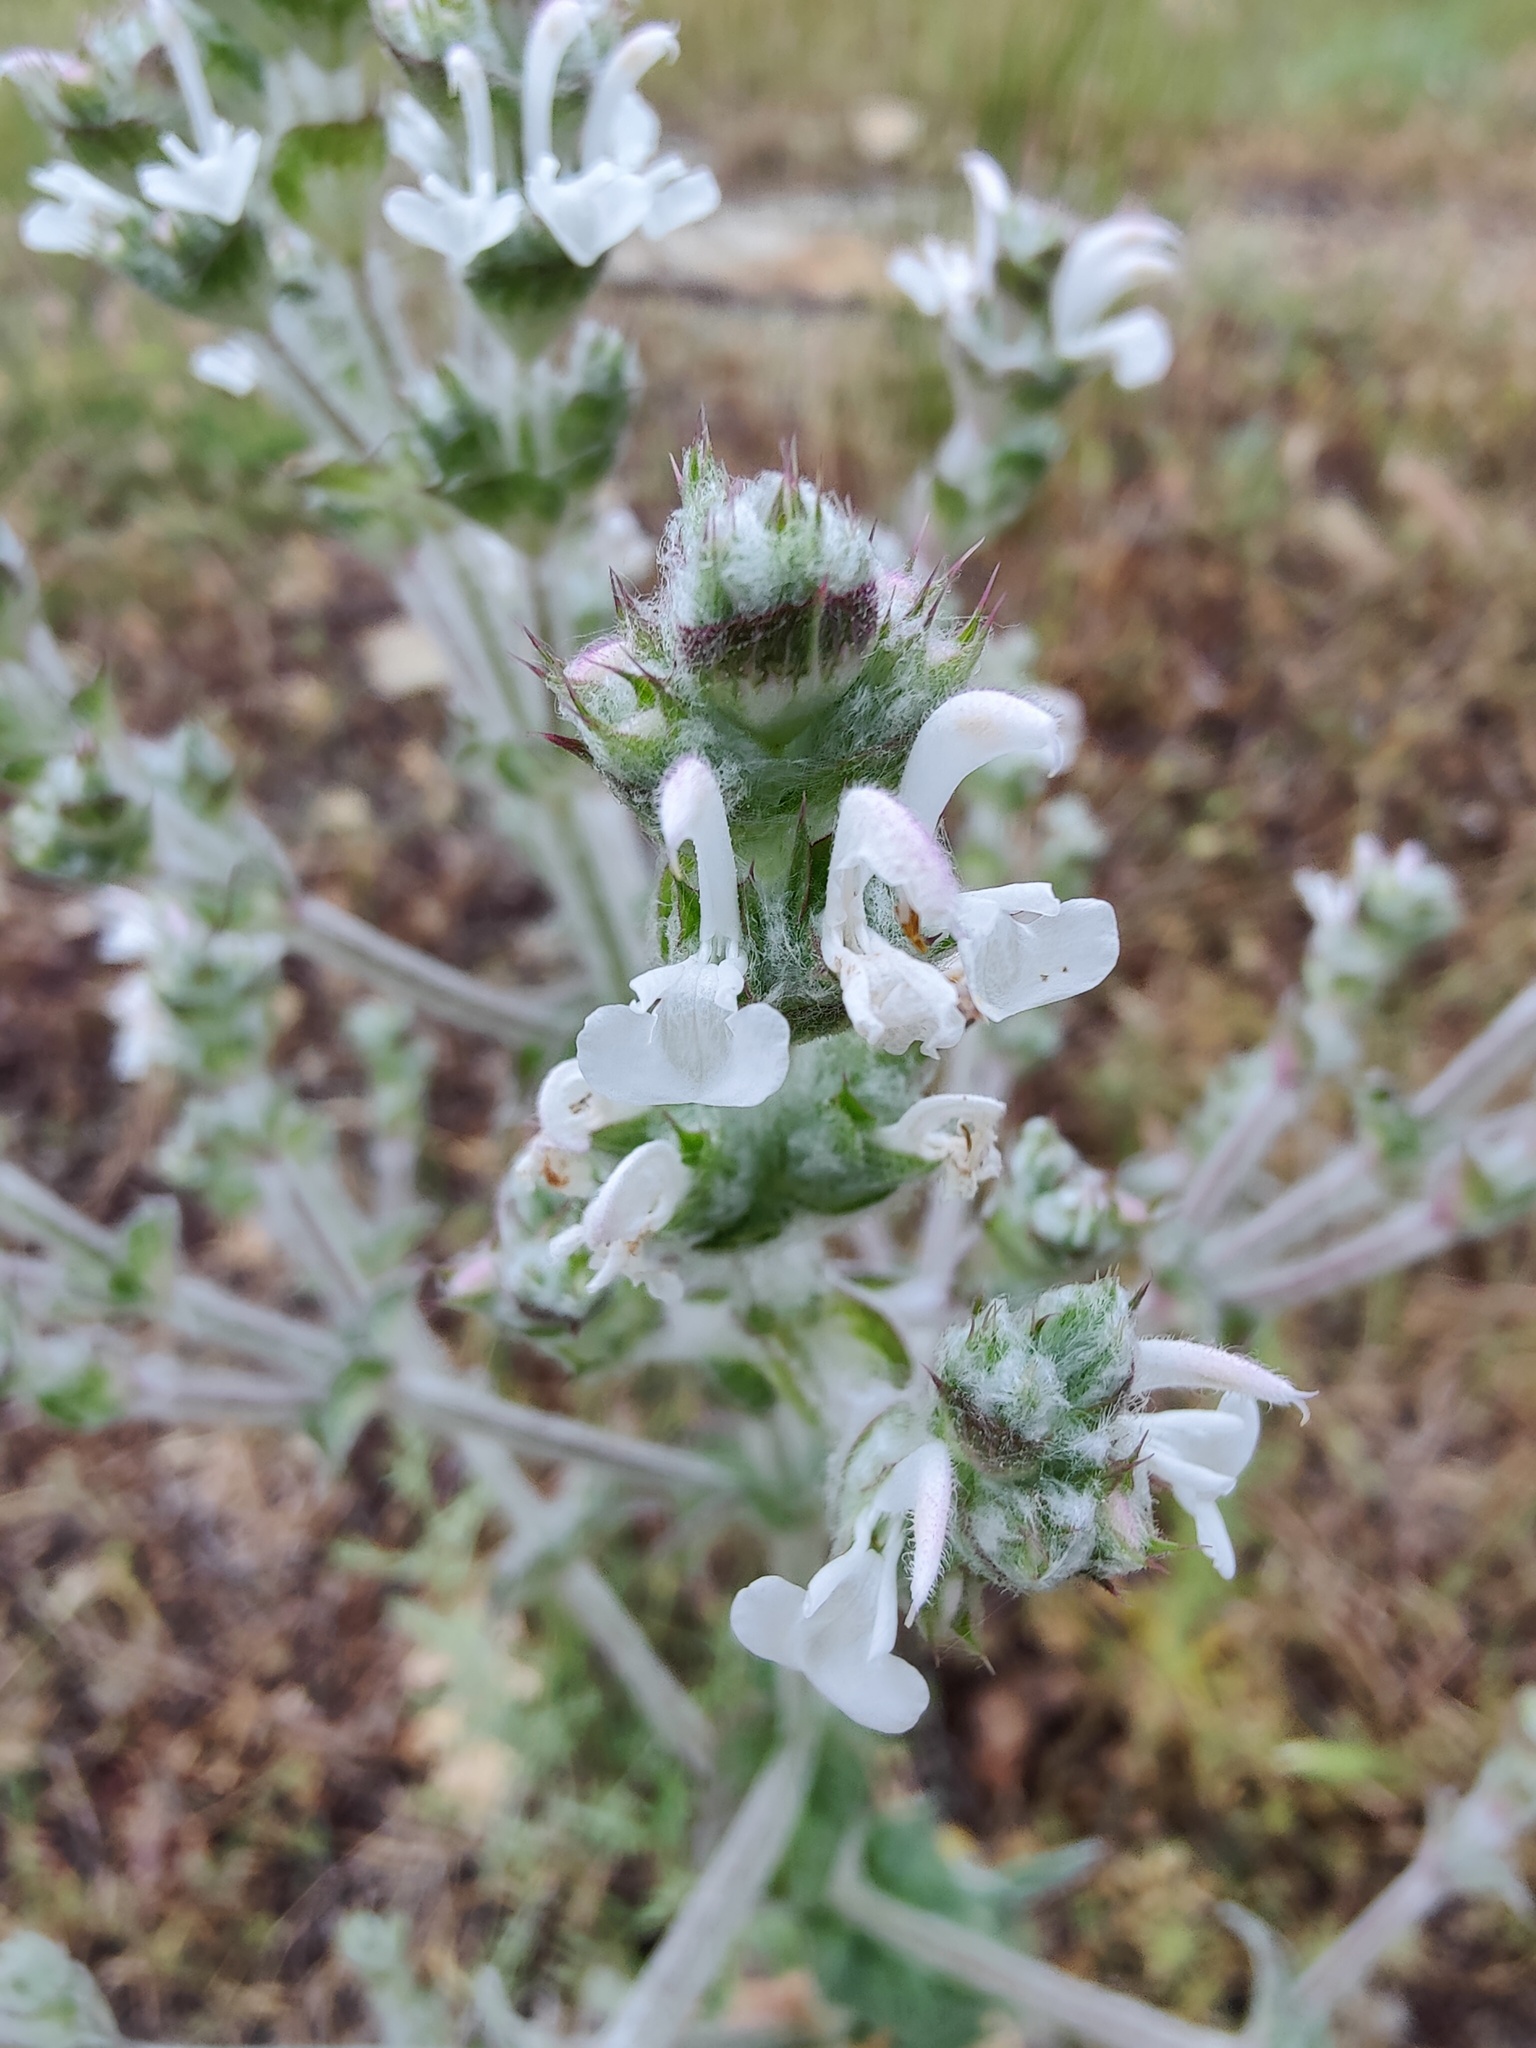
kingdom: Plantae
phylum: Tracheophyta
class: Magnoliopsida
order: Lamiales
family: Lamiaceae
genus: Salvia
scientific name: Salvia aethiopis
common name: Mediterranean sage
